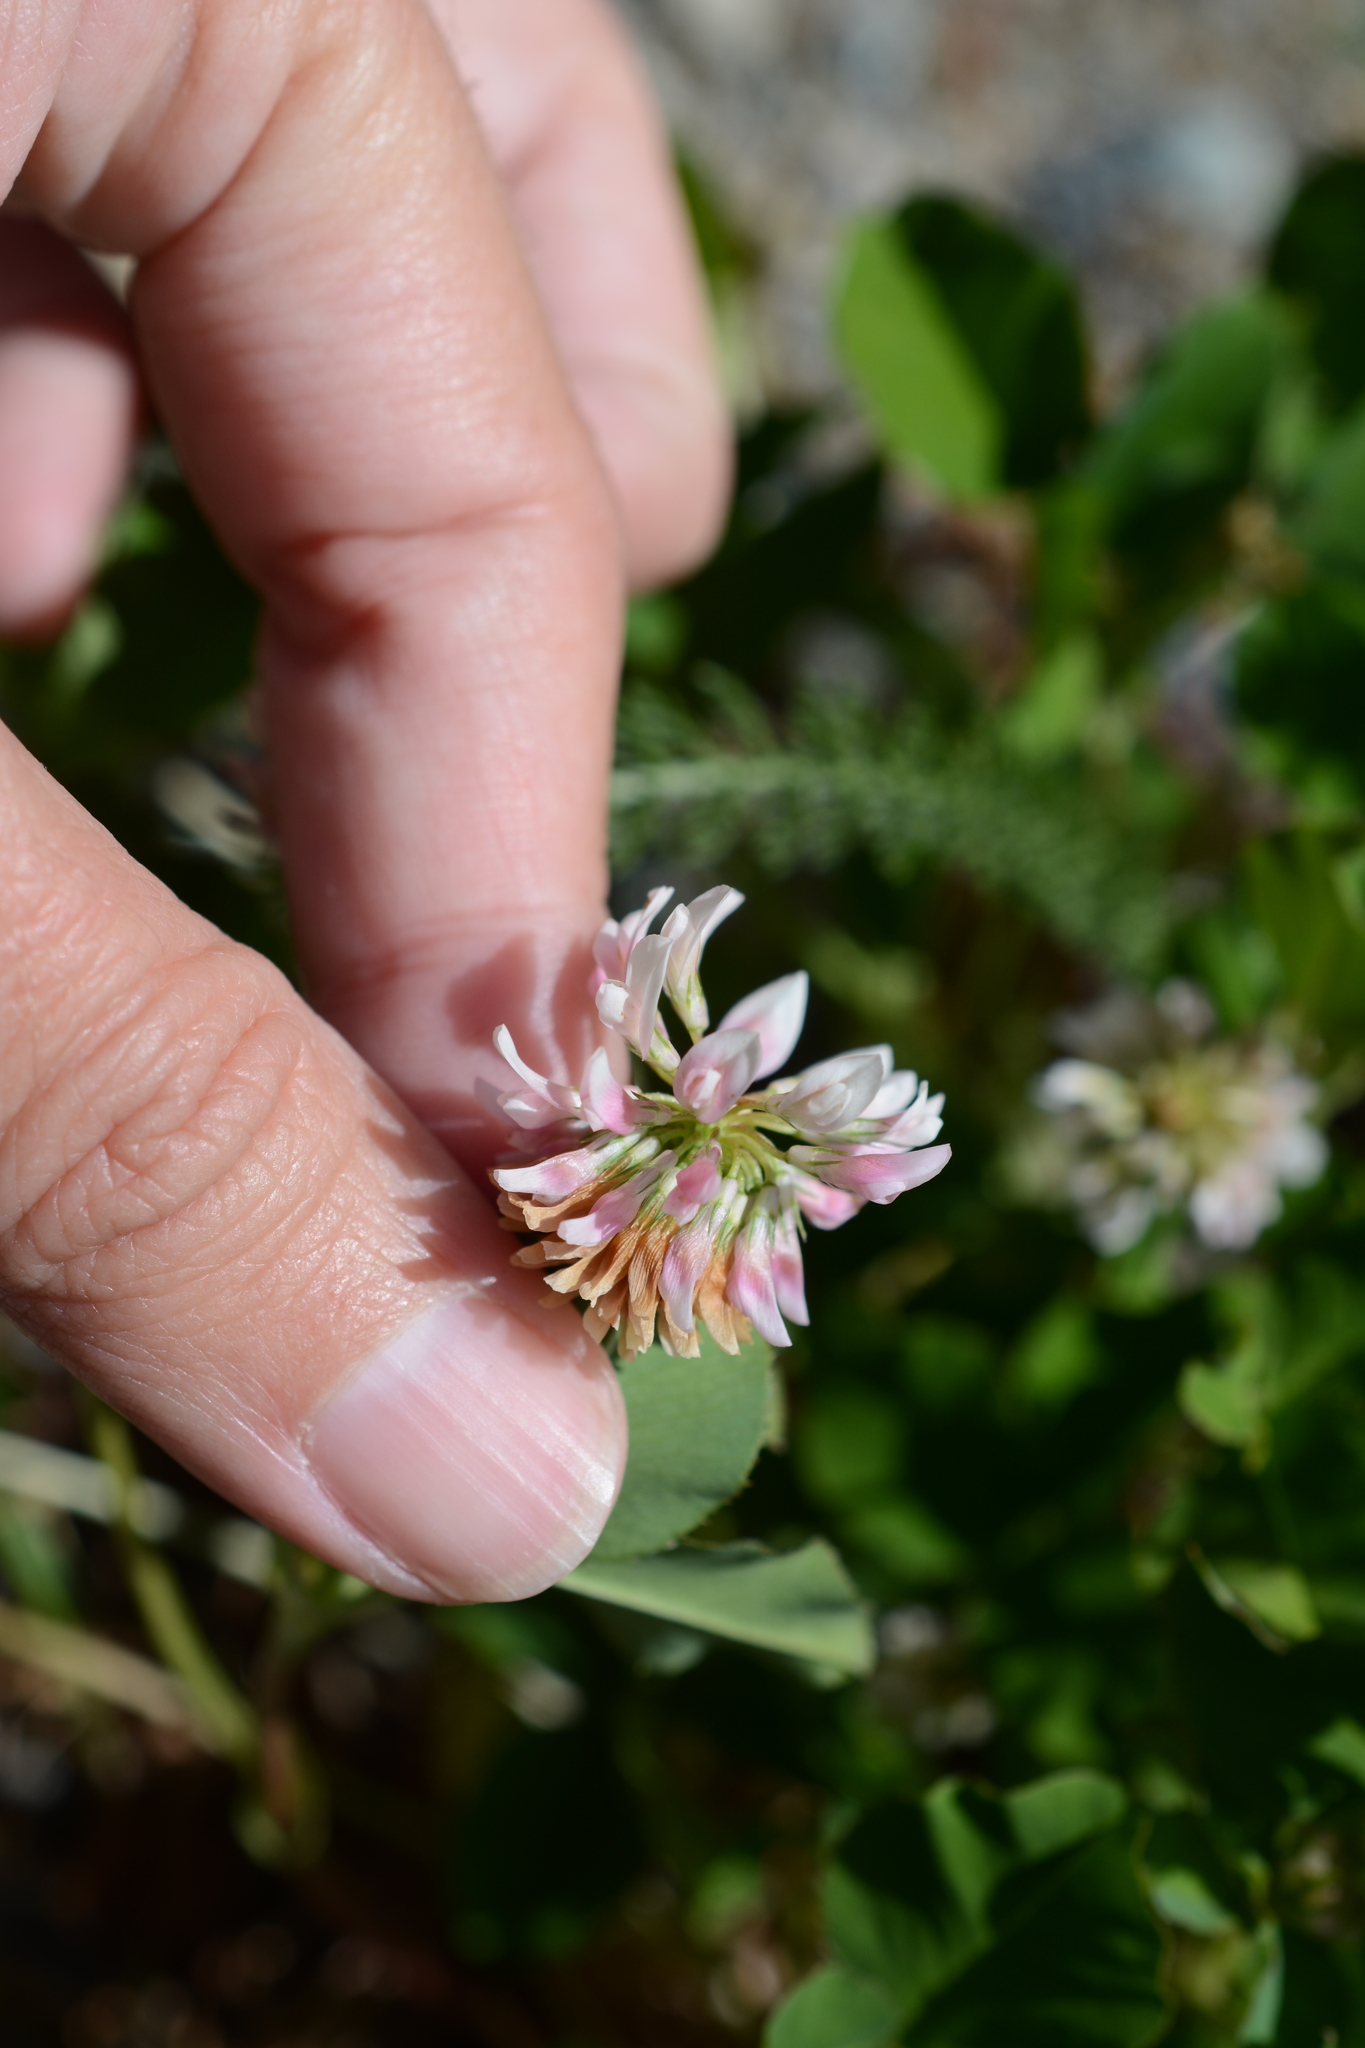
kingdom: Plantae
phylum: Tracheophyta
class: Magnoliopsida
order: Fabales
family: Fabaceae
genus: Trifolium
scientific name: Trifolium hybridum
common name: Alsike clover
